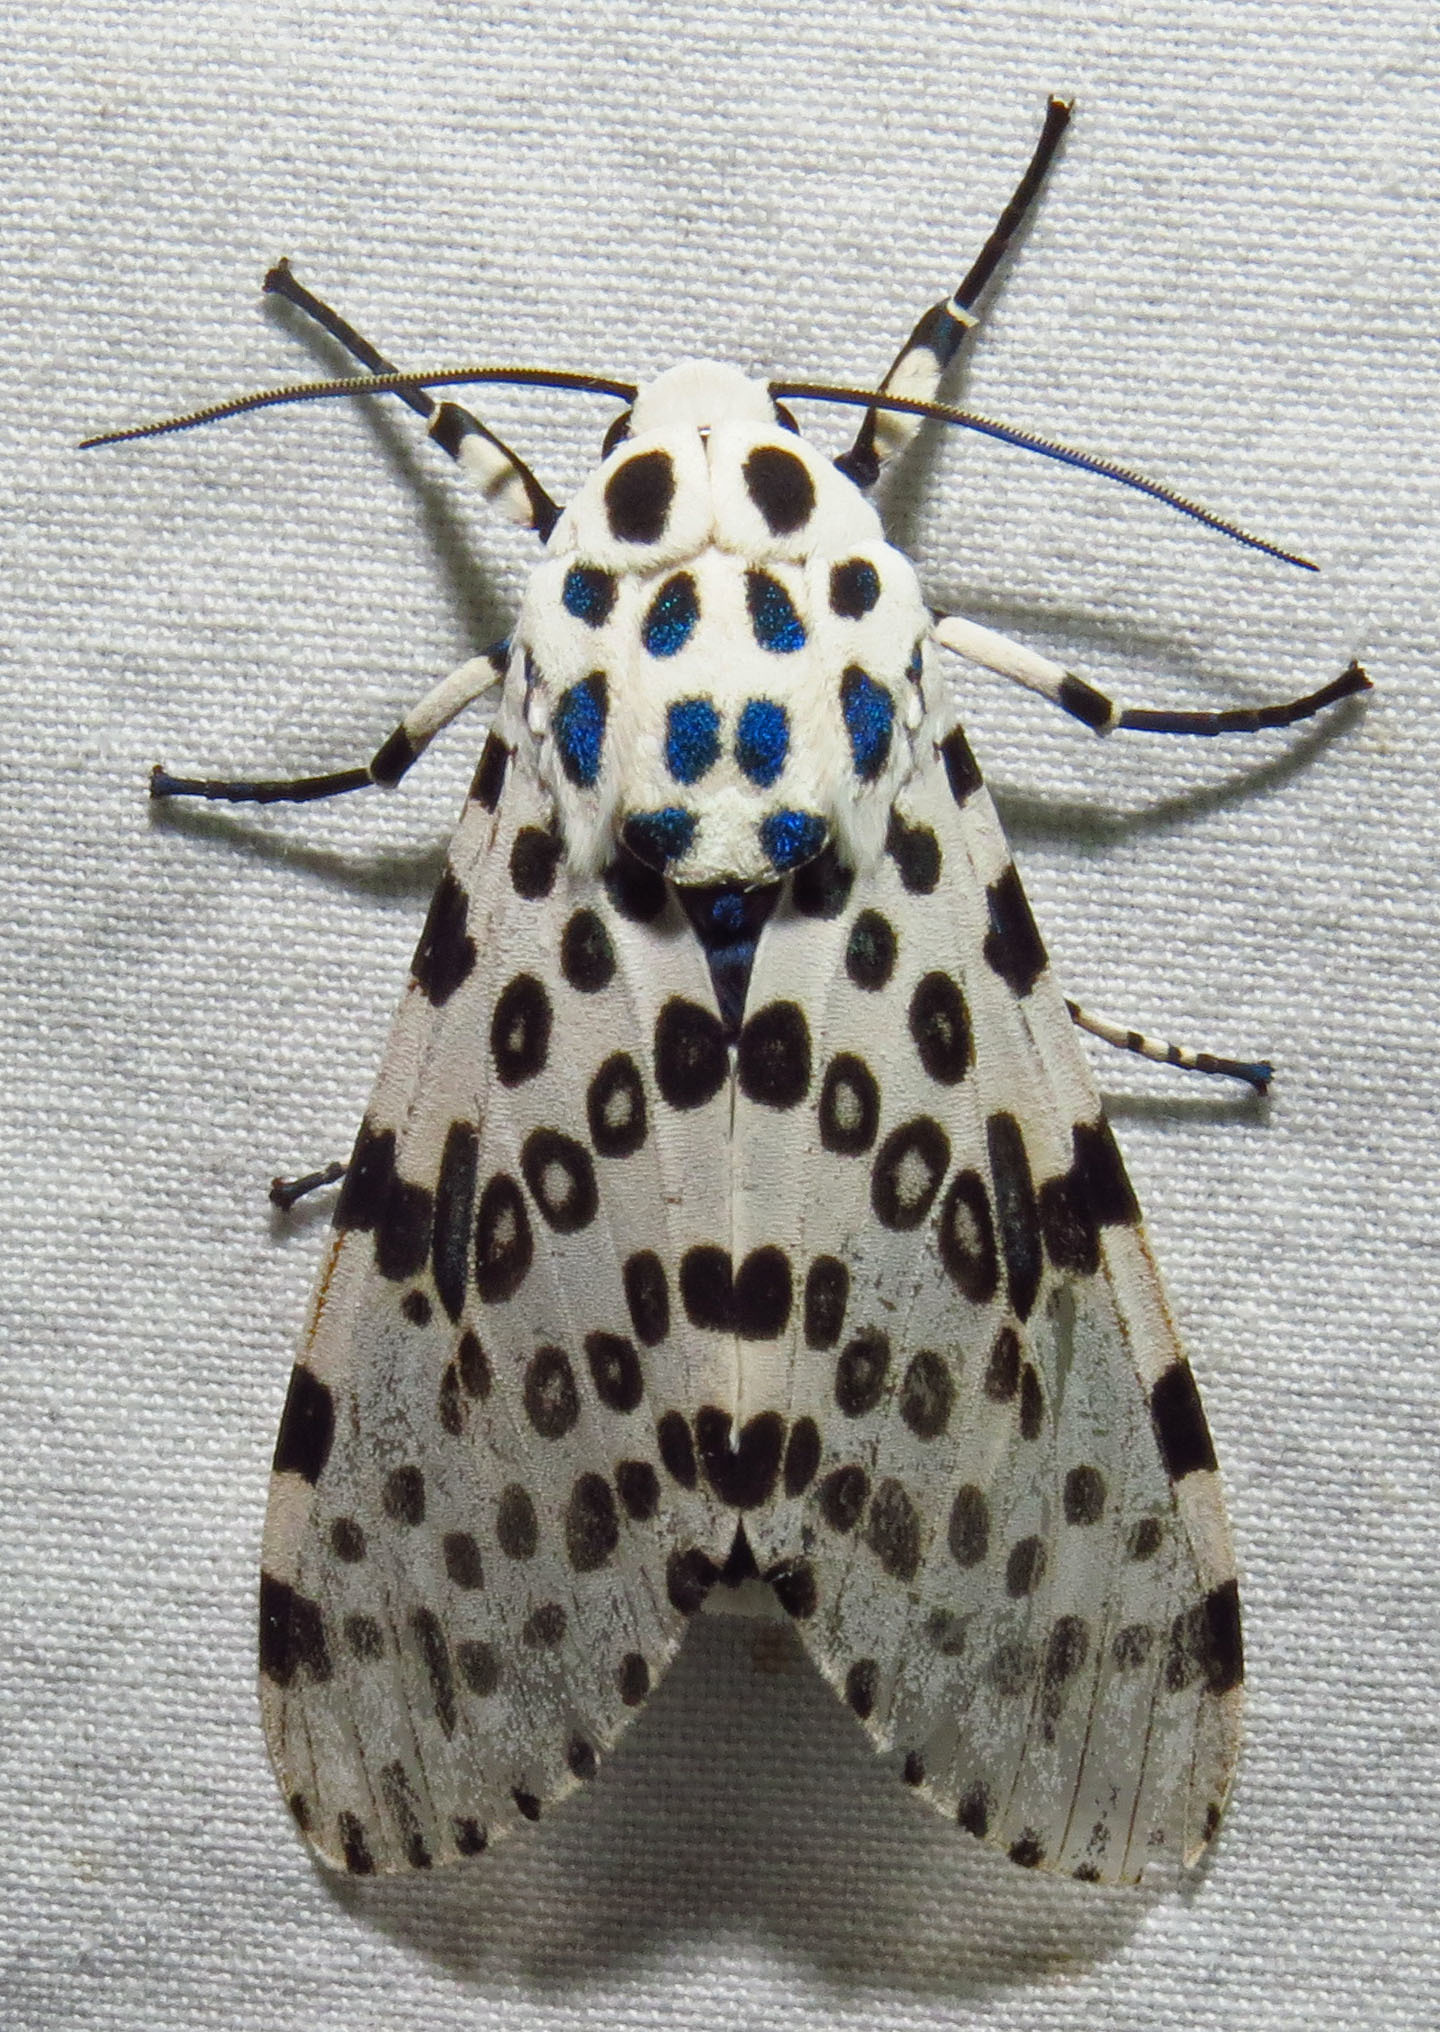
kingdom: Animalia
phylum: Arthropoda
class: Insecta
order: Lepidoptera
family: Erebidae
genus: Hypercompe
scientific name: Hypercompe scribonia
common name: Giant leopard moth
